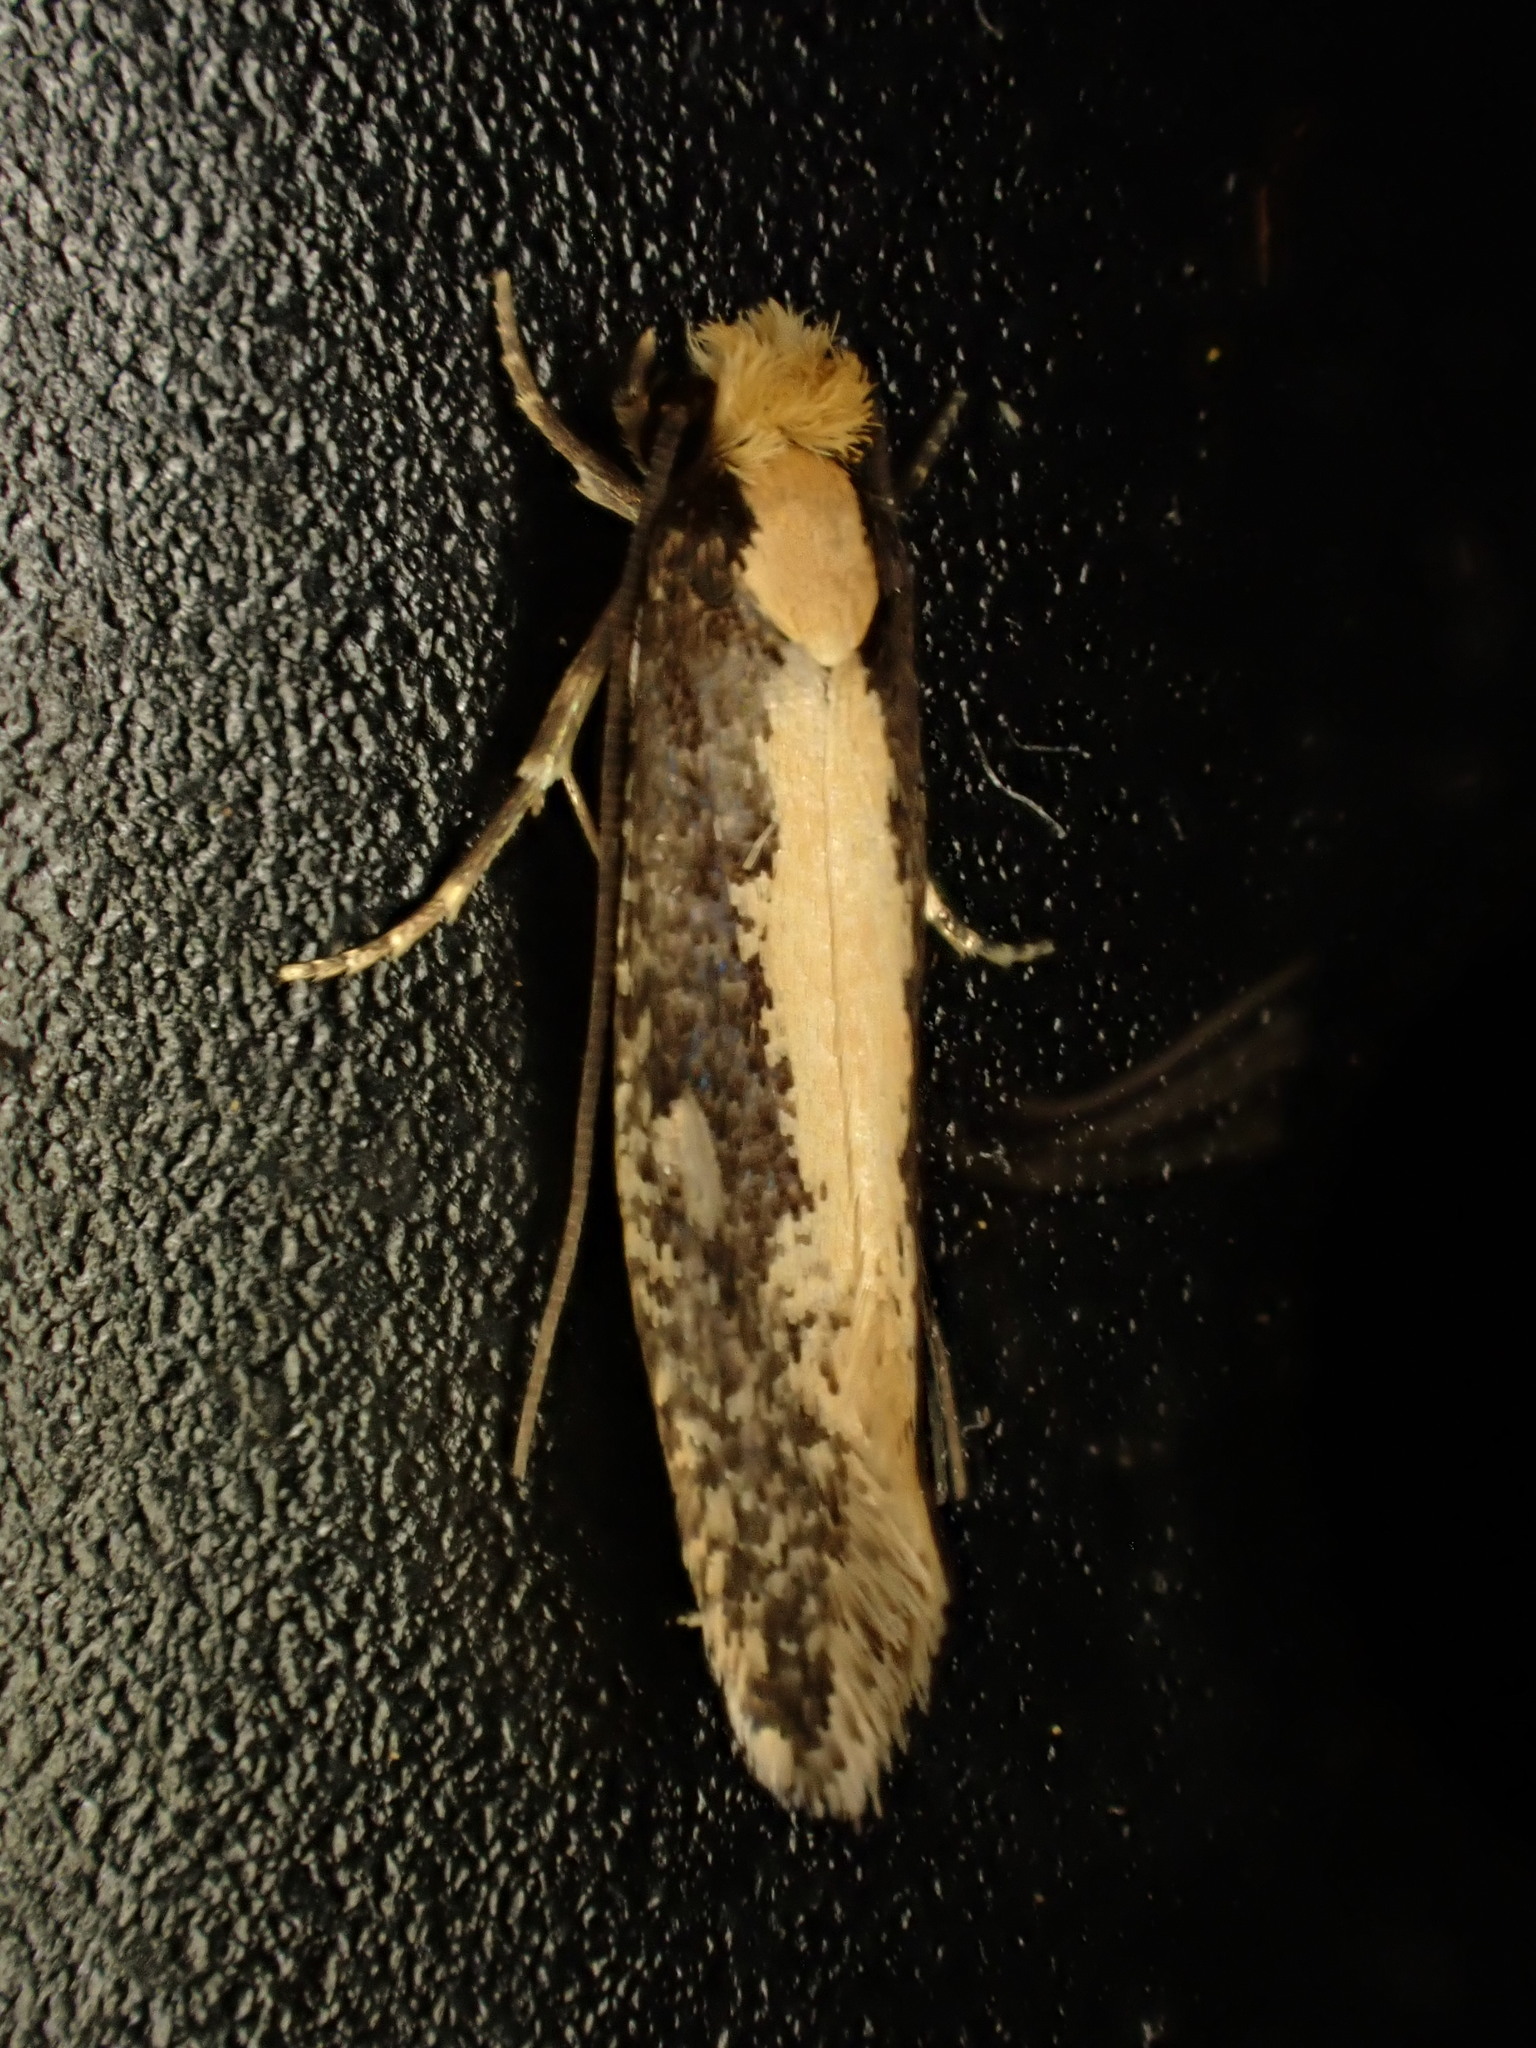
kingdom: Animalia
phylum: Arthropoda
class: Insecta
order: Lepidoptera
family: Tineidae
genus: Monopis
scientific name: Monopis crocicapitella
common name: Moth
